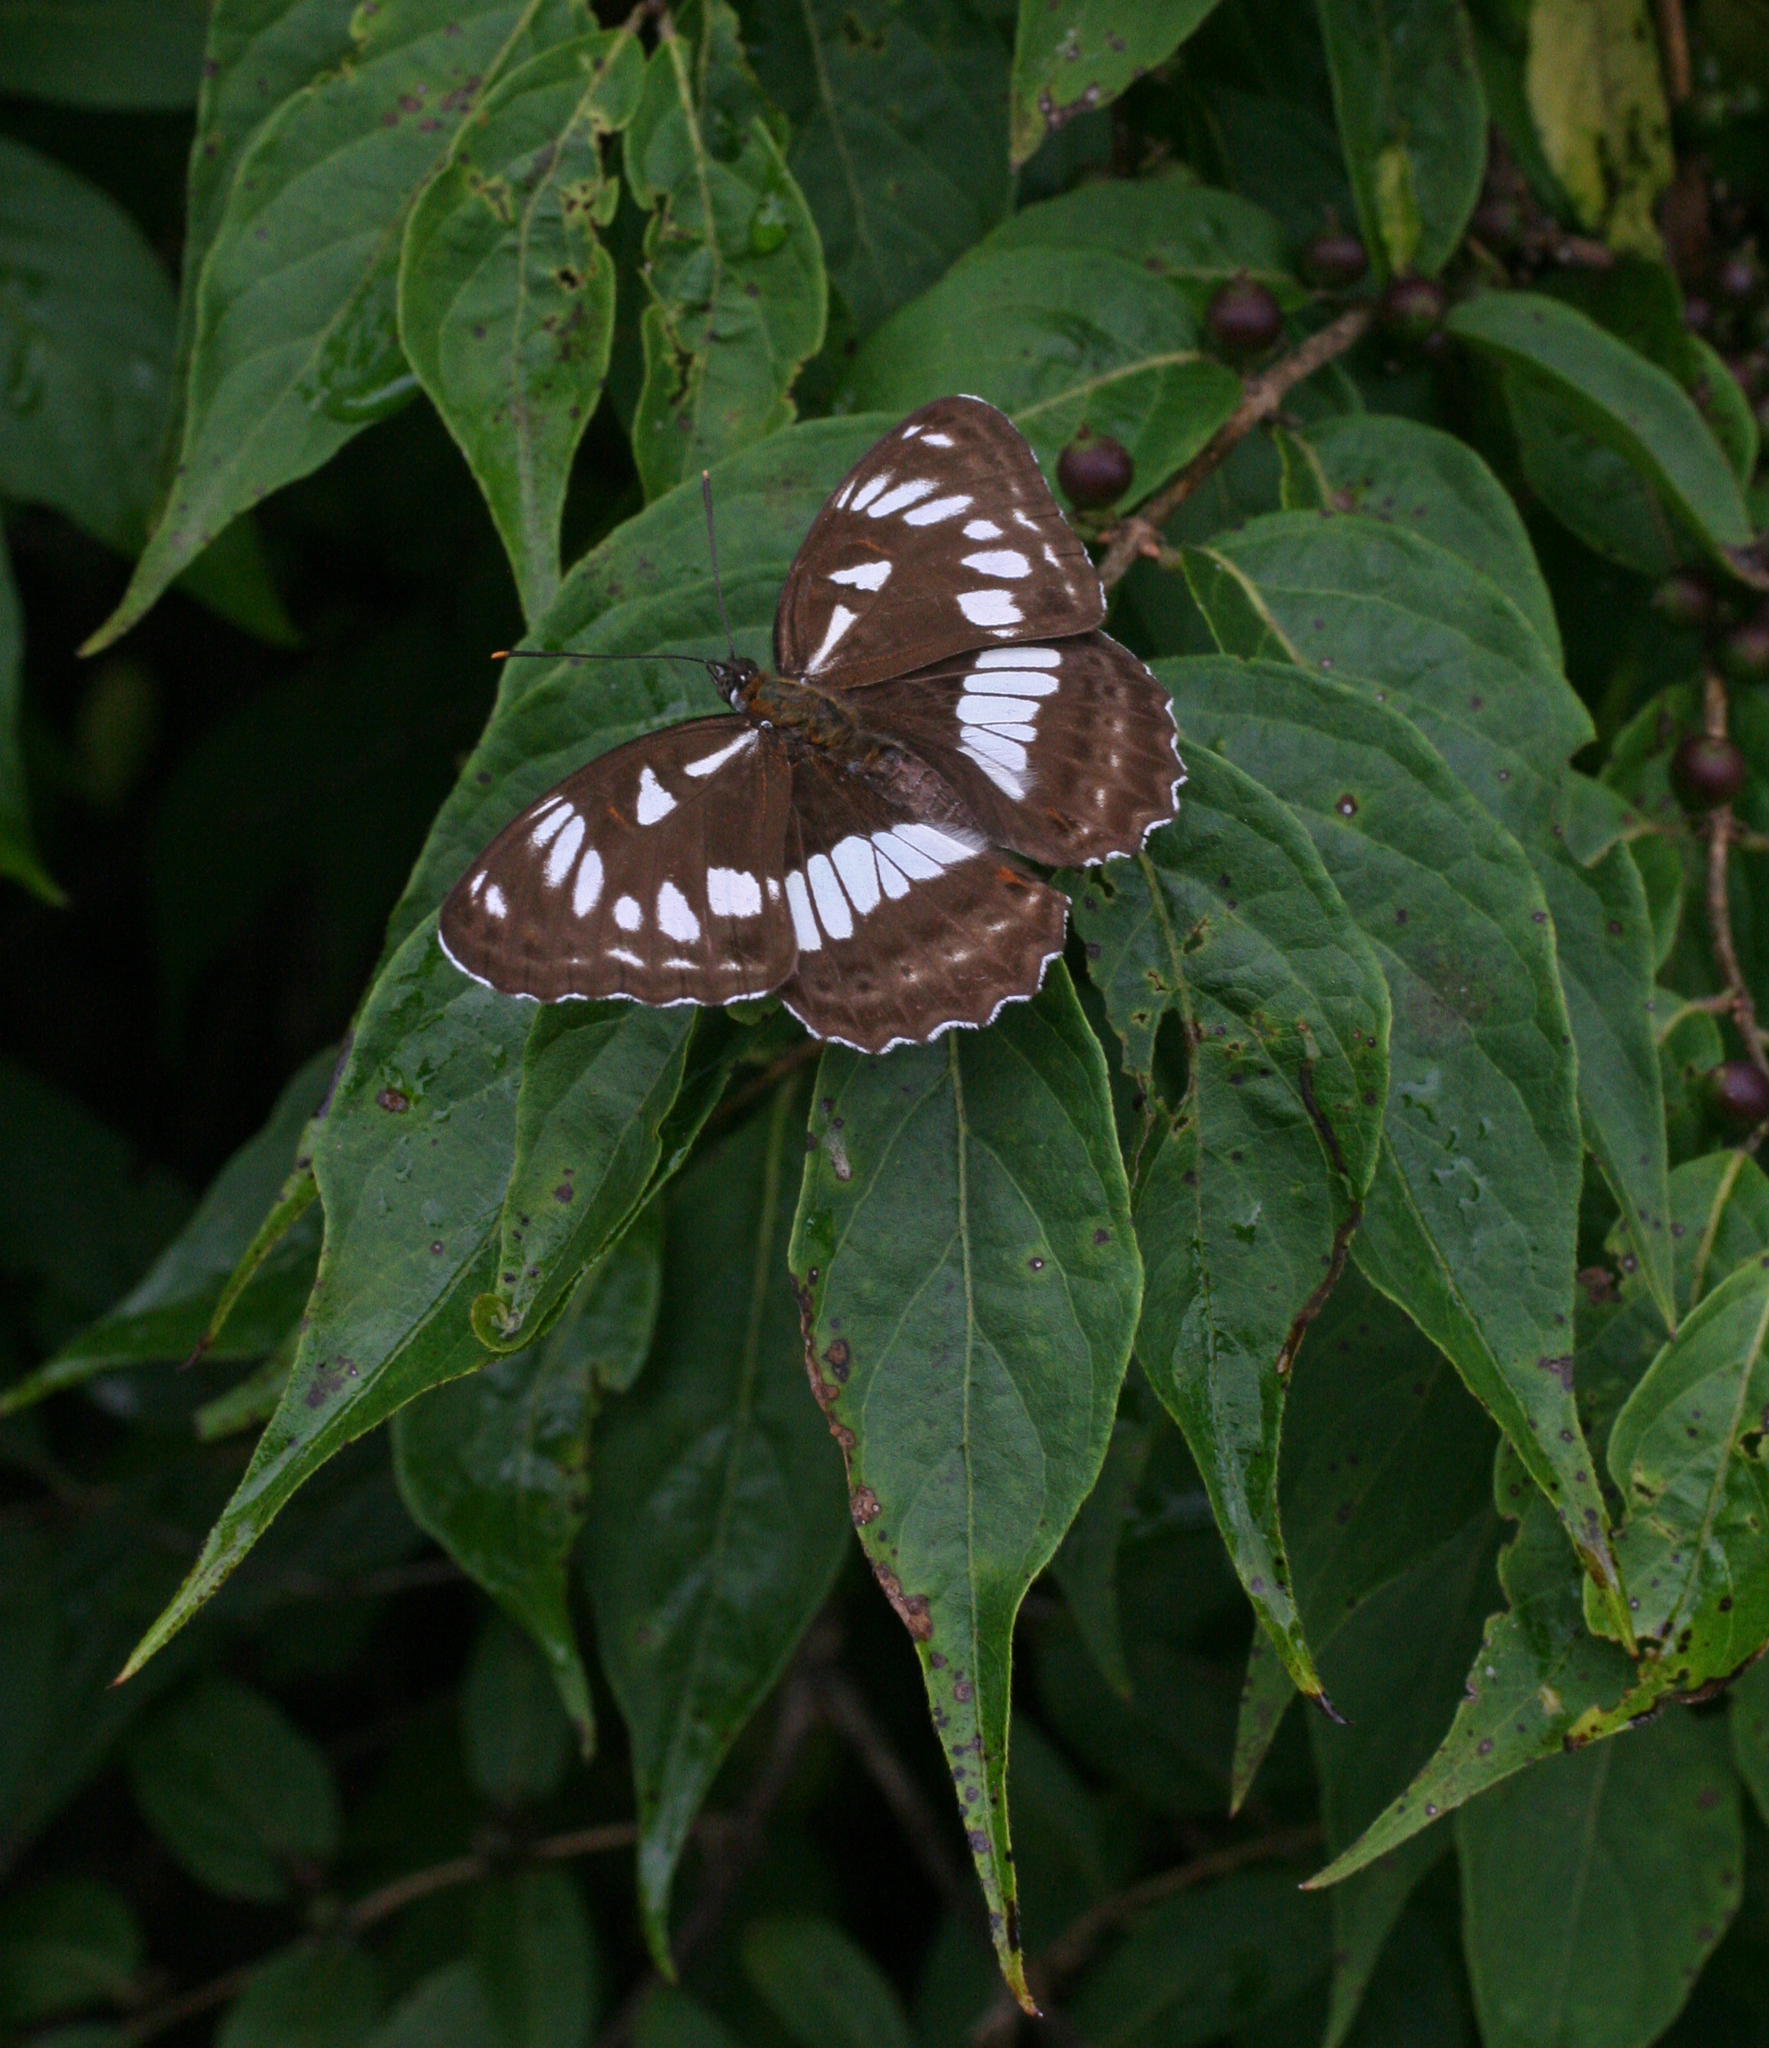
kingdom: Animalia
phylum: Arthropoda
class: Insecta
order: Lepidoptera
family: Nymphalidae
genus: Limenitis
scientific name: Limenitis doerriesi
